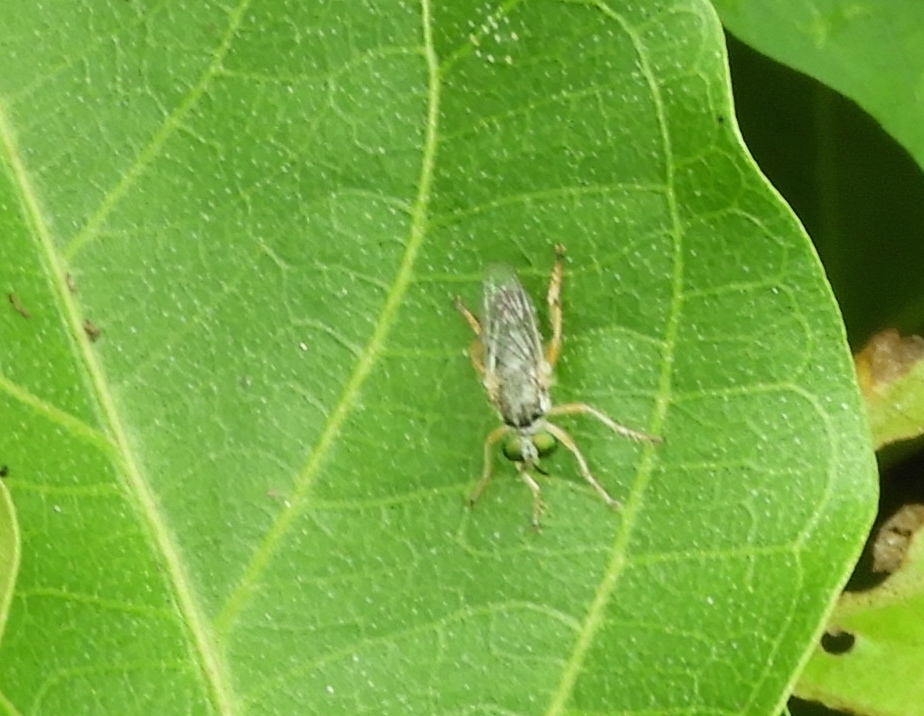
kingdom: Animalia
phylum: Arthropoda
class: Insecta
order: Diptera
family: Asilidae
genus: Atomosia
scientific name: Atomosia
